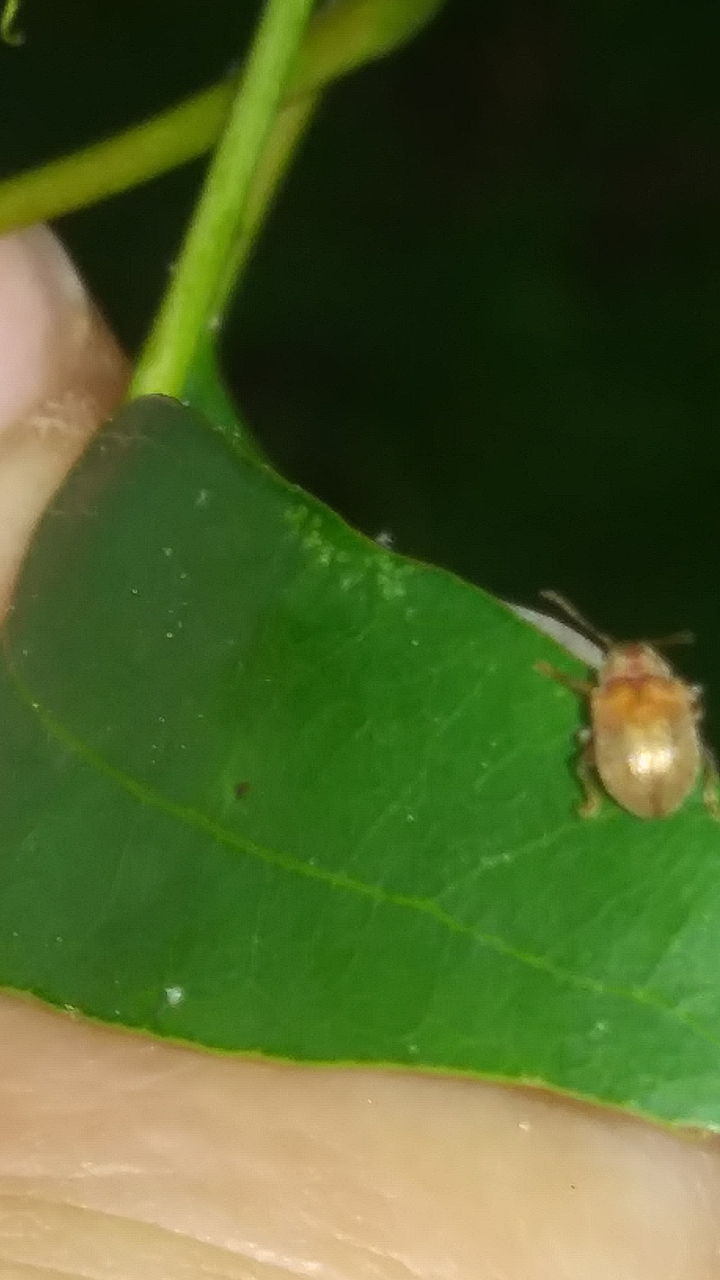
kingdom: Animalia
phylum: Arthropoda
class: Insecta
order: Coleoptera
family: Chrysomelidae
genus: Demotina
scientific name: Demotina modesta
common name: Leaf beetle
